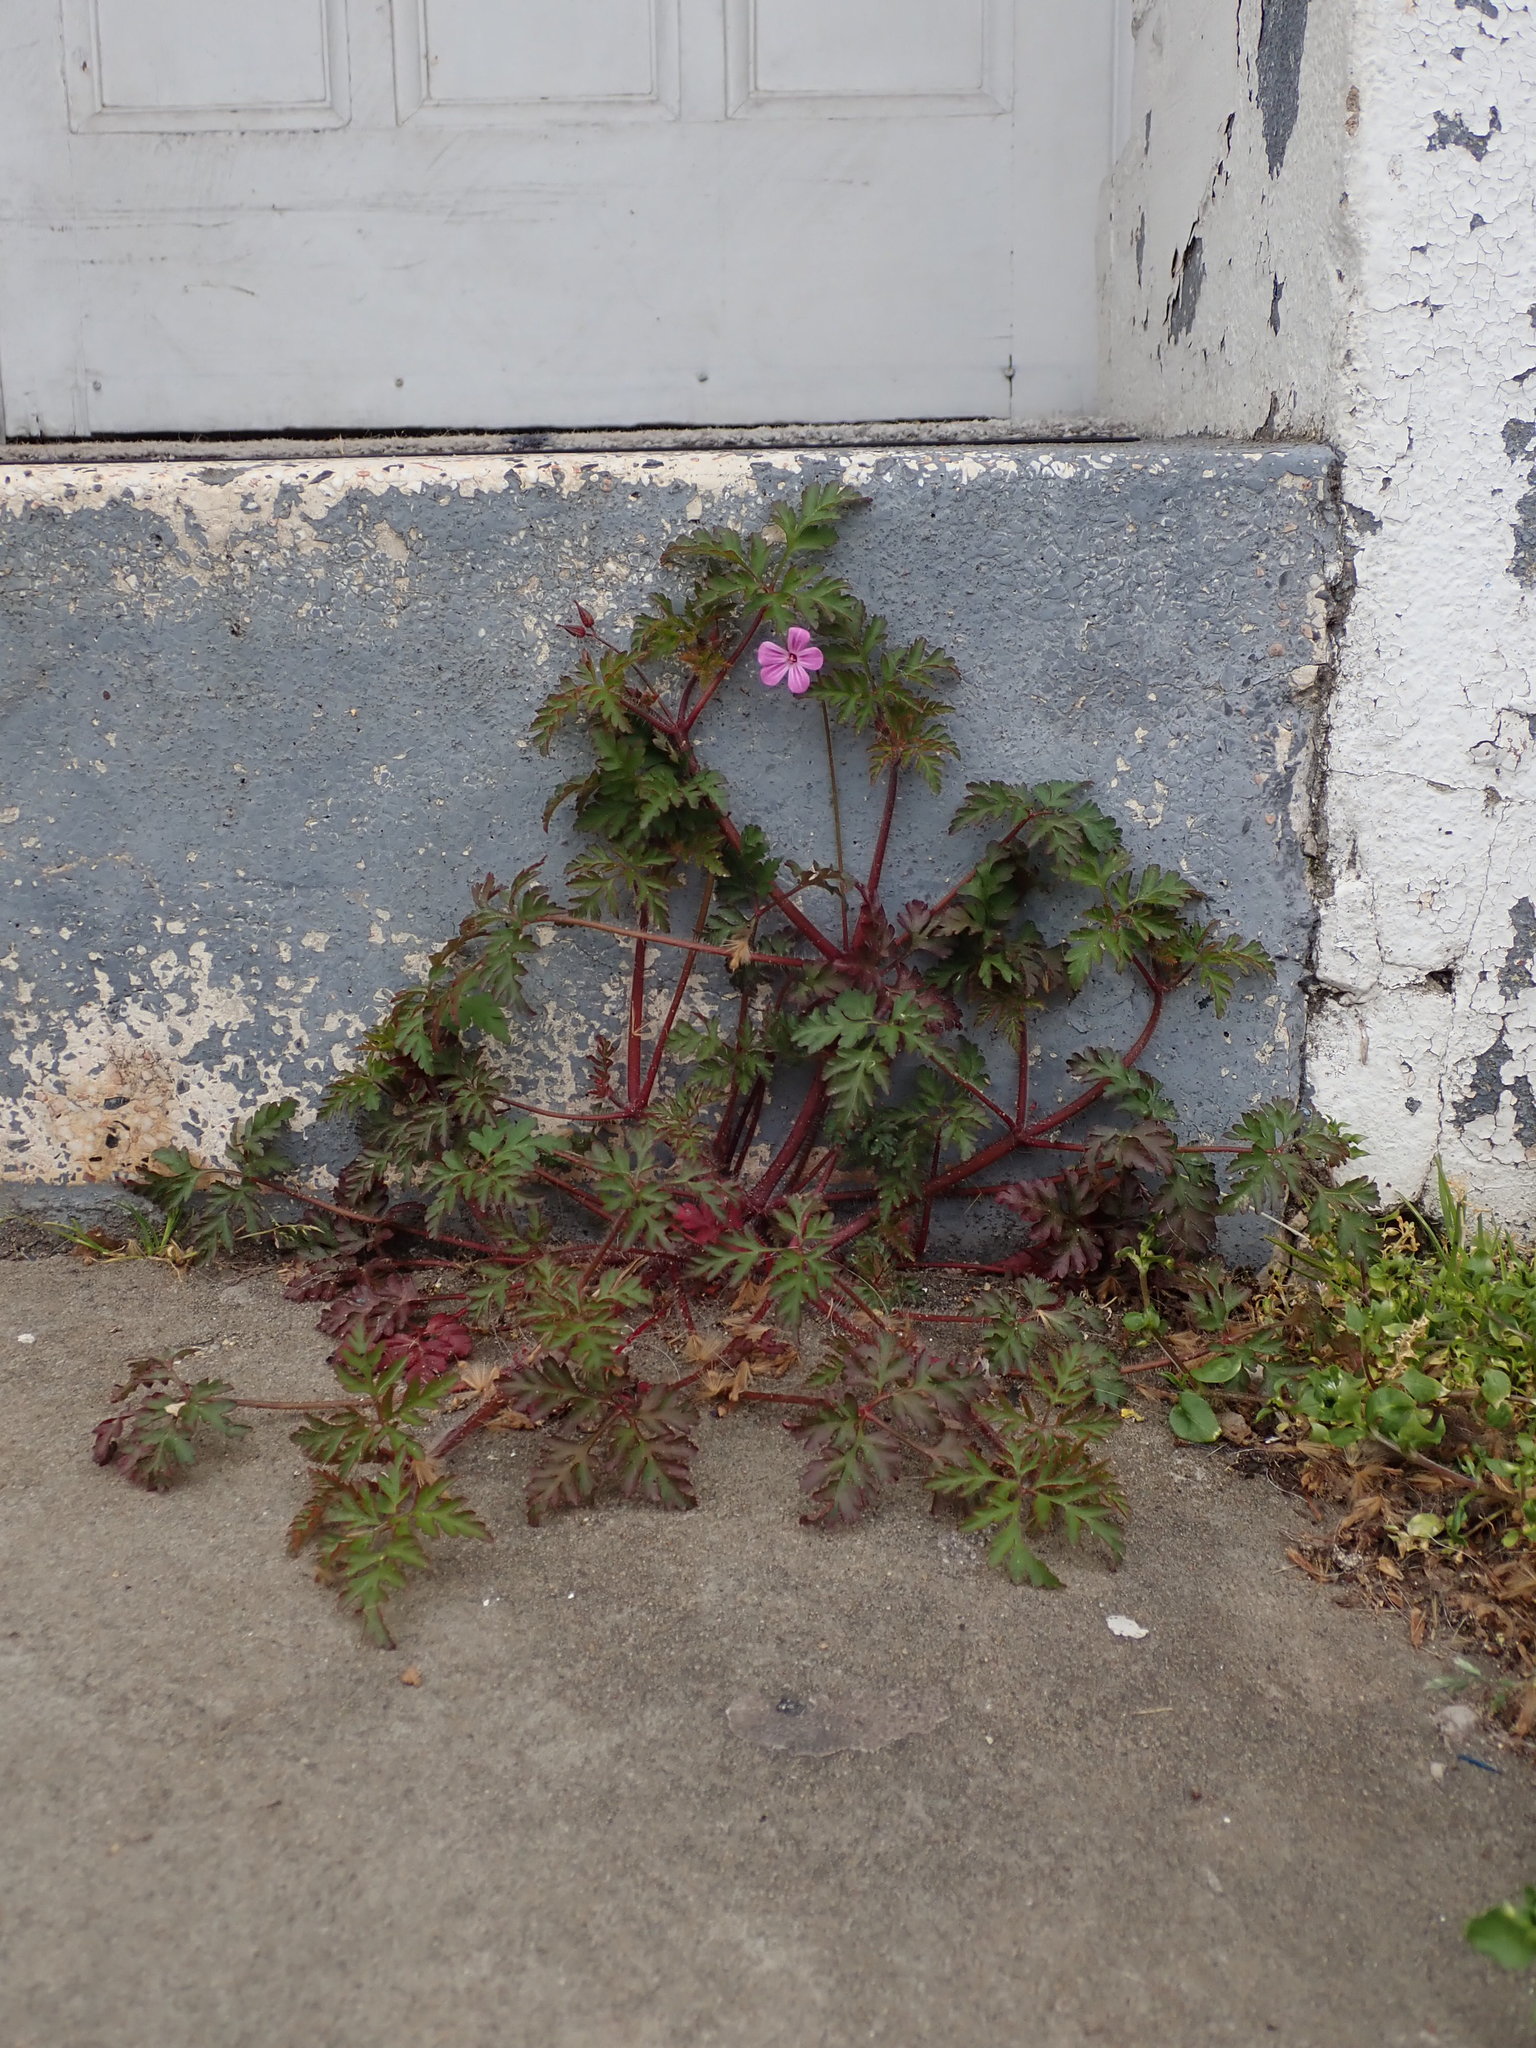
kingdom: Plantae
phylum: Tracheophyta
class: Magnoliopsida
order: Geraniales
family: Geraniaceae
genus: Geranium
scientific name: Geranium robertianum
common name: Herb-robert
